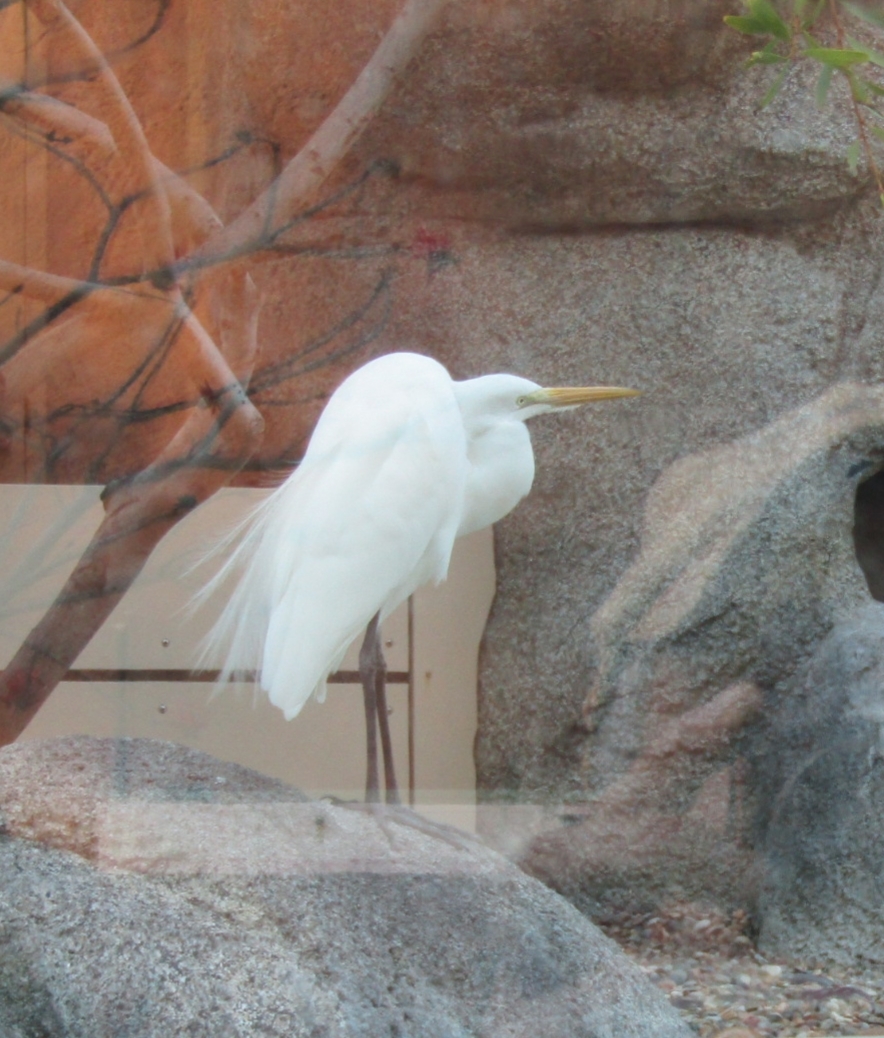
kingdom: Animalia
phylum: Chordata
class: Aves
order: Pelecaniformes
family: Ardeidae
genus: Ardea
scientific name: Ardea alba
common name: Great egret
